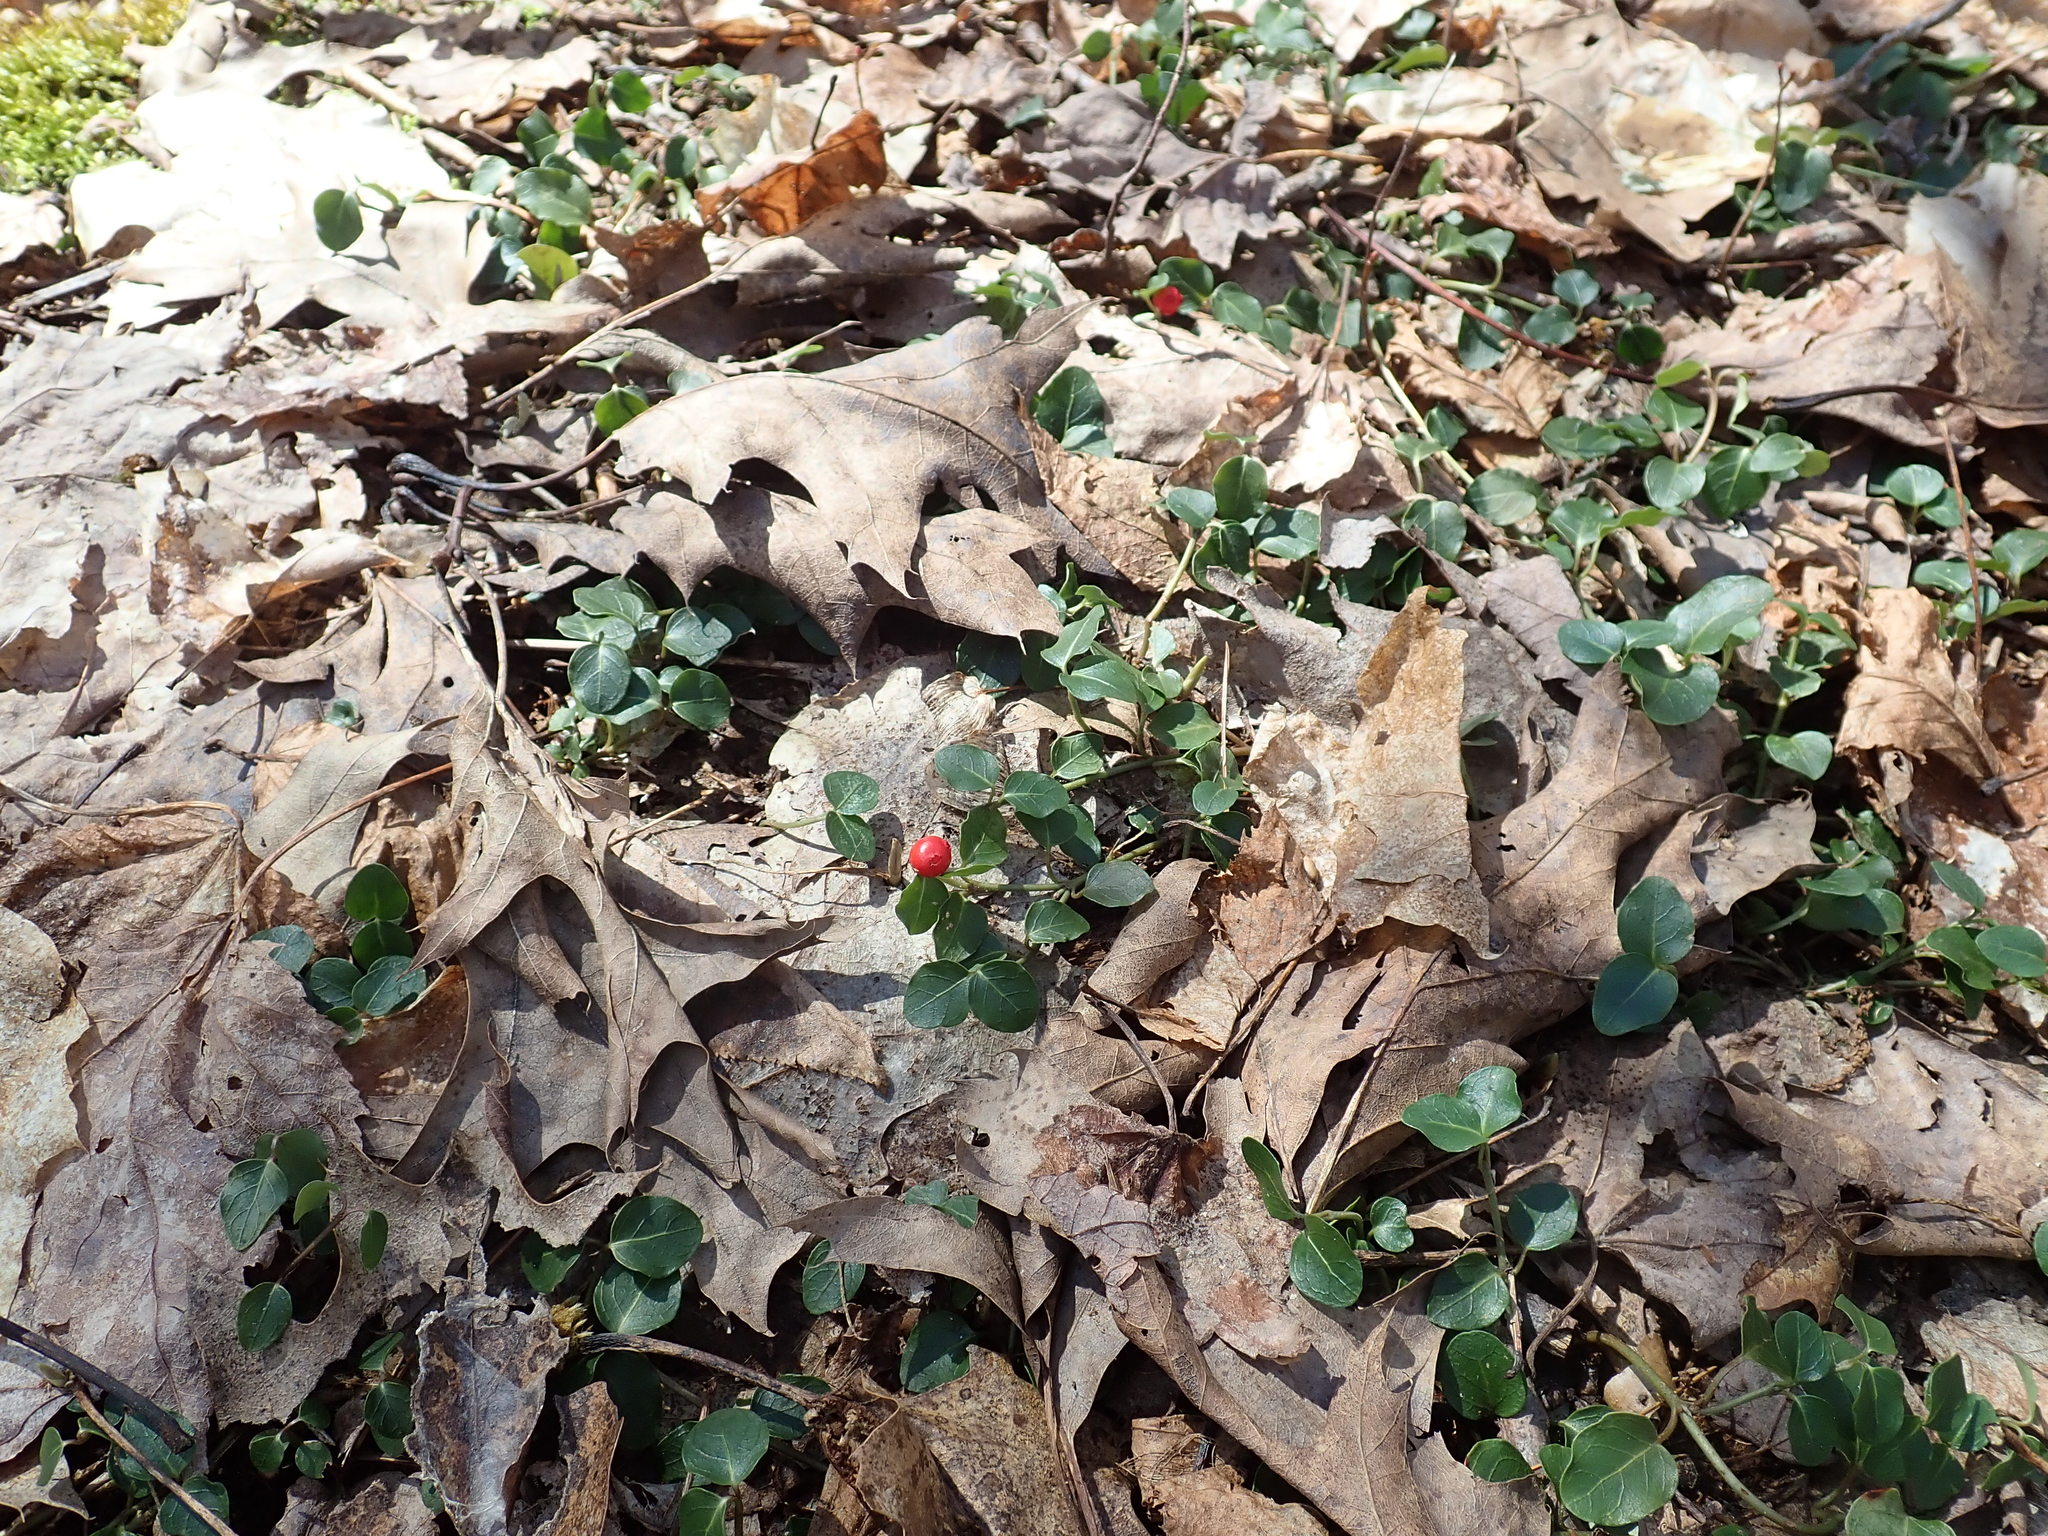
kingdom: Plantae
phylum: Tracheophyta
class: Magnoliopsida
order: Gentianales
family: Rubiaceae
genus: Mitchella
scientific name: Mitchella repens
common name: Partridge-berry
